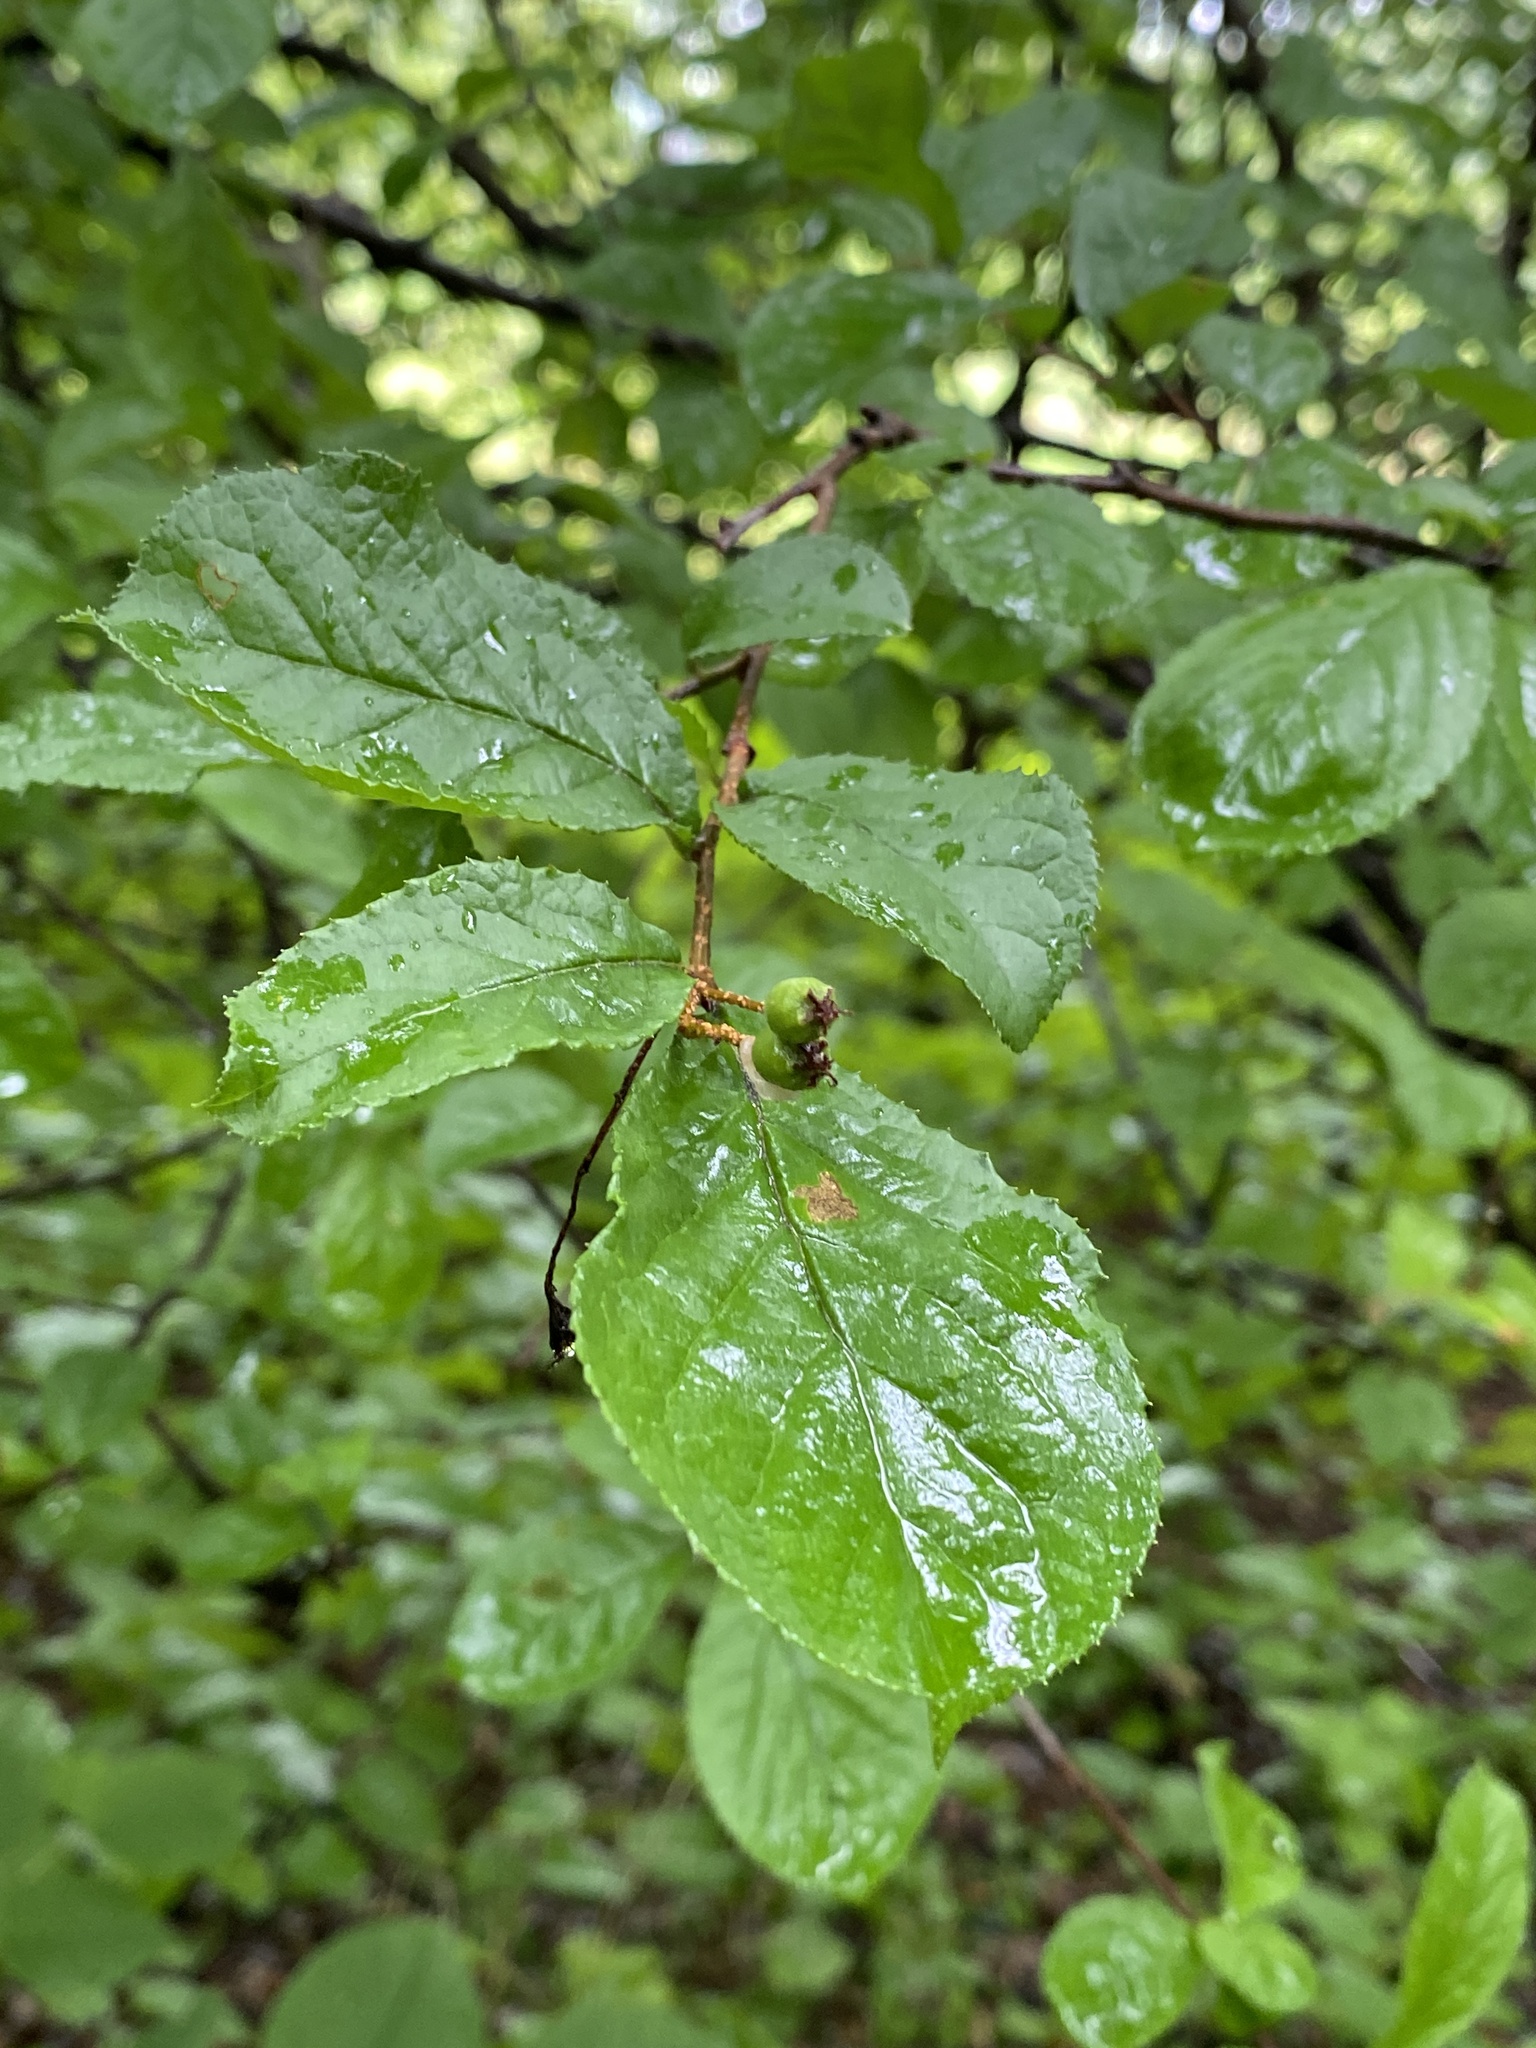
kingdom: Plantae
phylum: Tracheophyta
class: Magnoliopsida
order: Rosales
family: Rosaceae
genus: Pourthiaea
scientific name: Pourthiaea villosa
